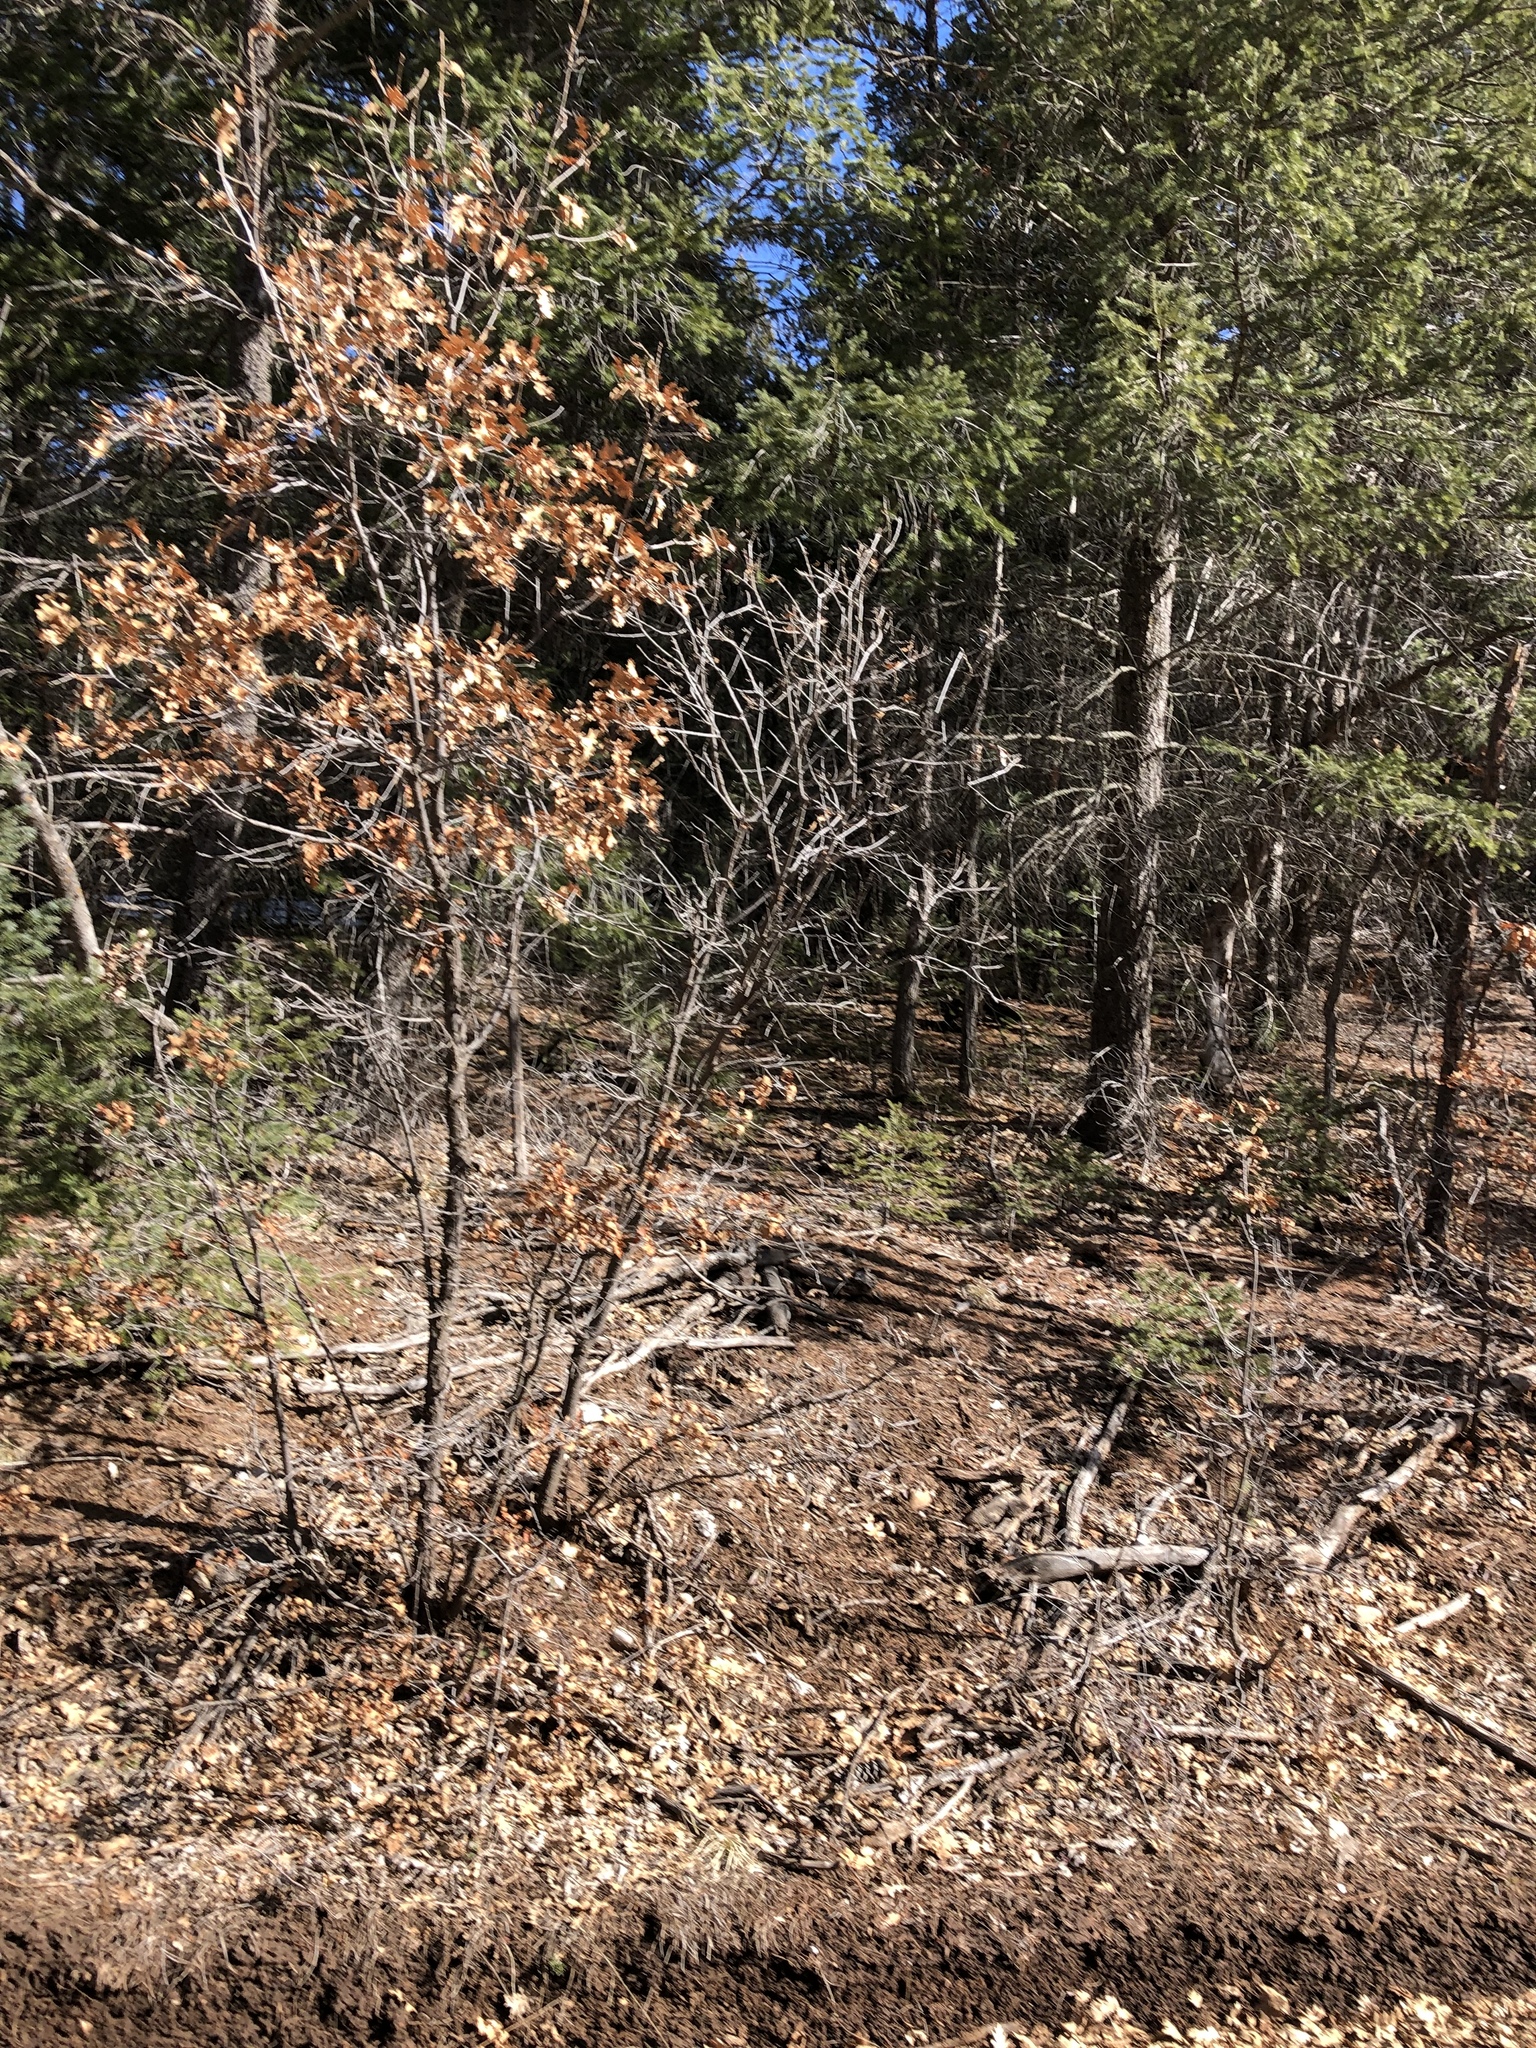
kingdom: Plantae
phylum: Tracheophyta
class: Magnoliopsida
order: Fagales
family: Fagaceae
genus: Quercus
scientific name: Quercus gambelii
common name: Gambel oak
